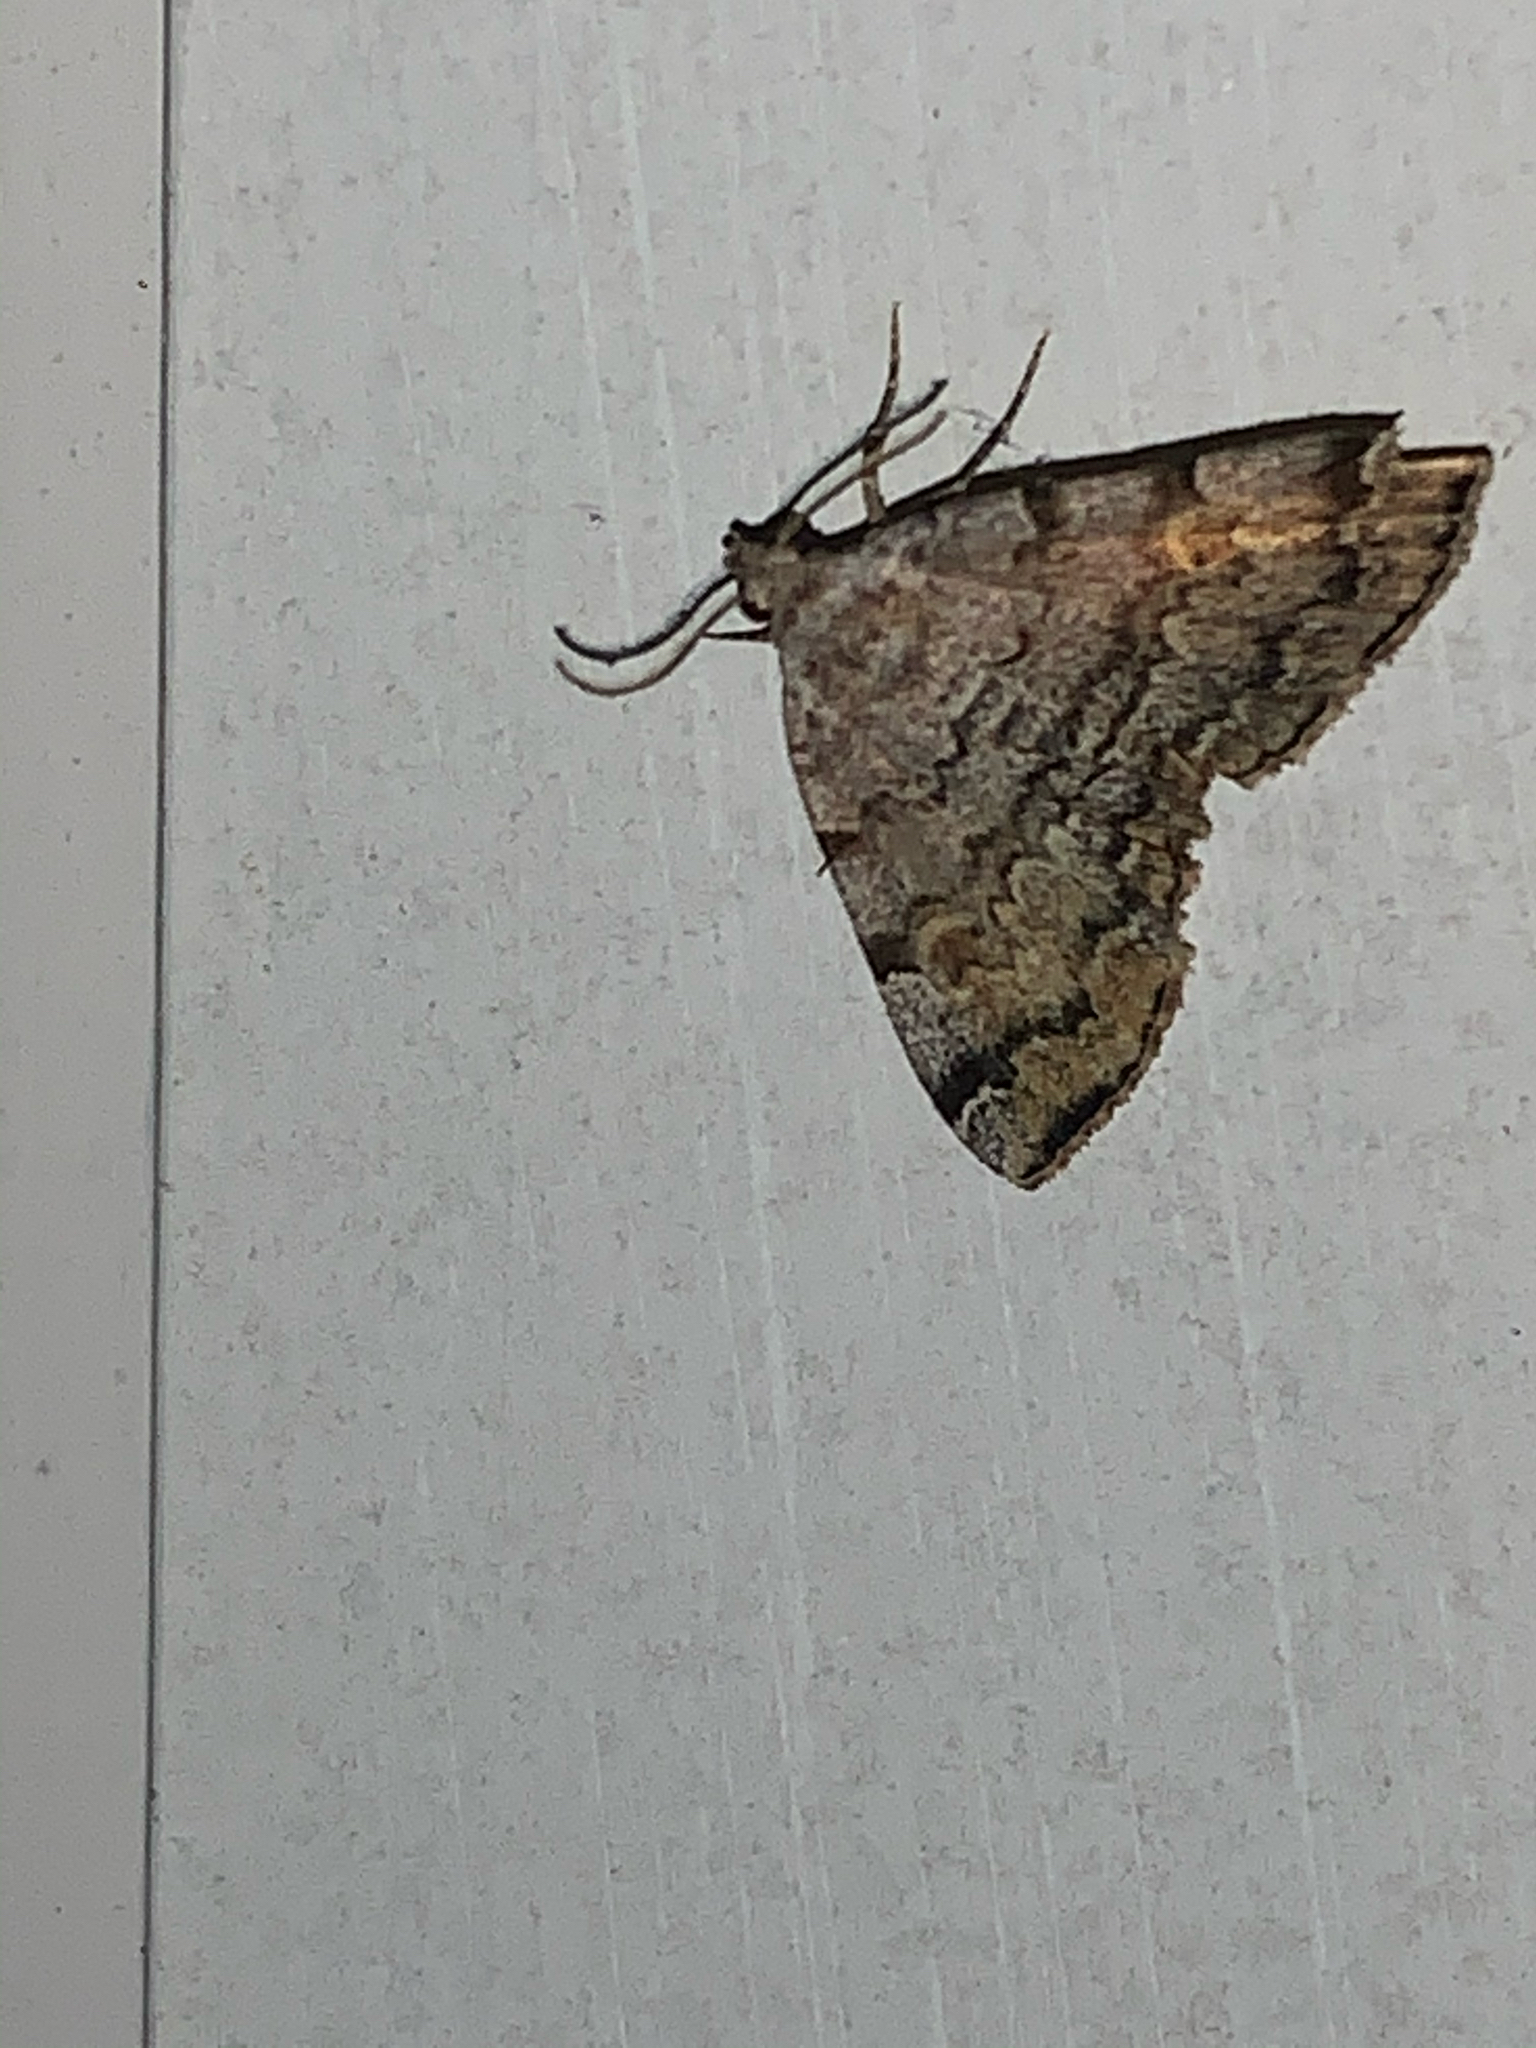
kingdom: Animalia
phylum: Arthropoda
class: Insecta
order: Lepidoptera
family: Erebidae
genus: Idia
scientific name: Idia americalis
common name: American idia moth
